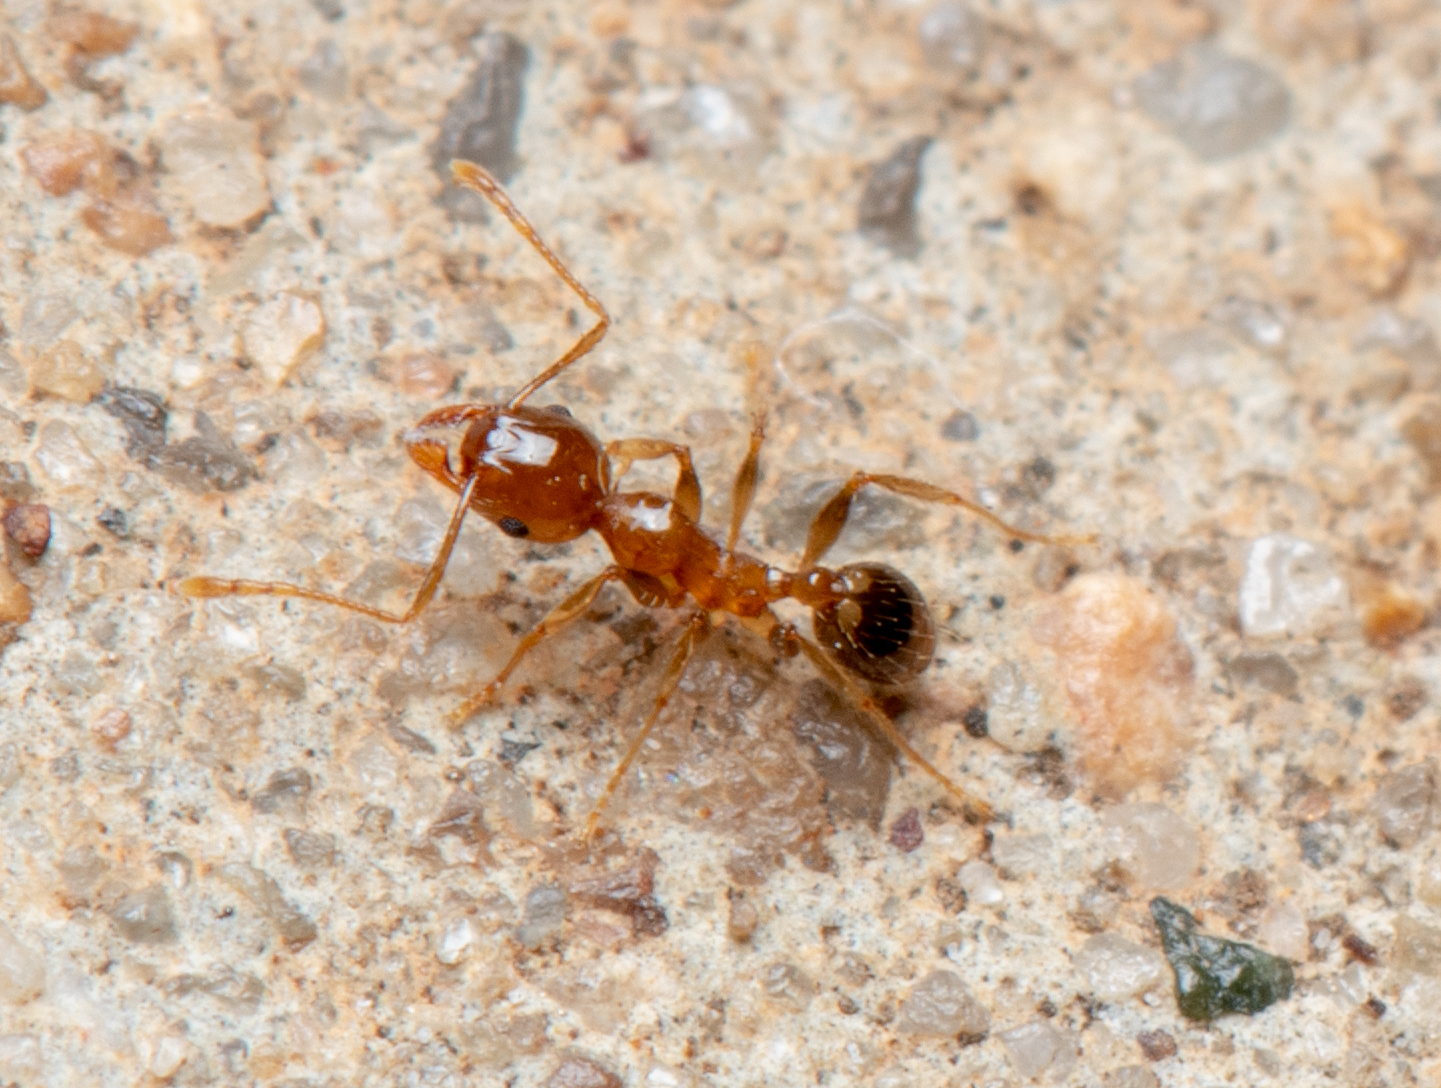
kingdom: Animalia
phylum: Arthropoda
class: Insecta
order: Hymenoptera
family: Formicidae
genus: Pheidole
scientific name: Pheidole megacephala
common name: Bigheaded ant
